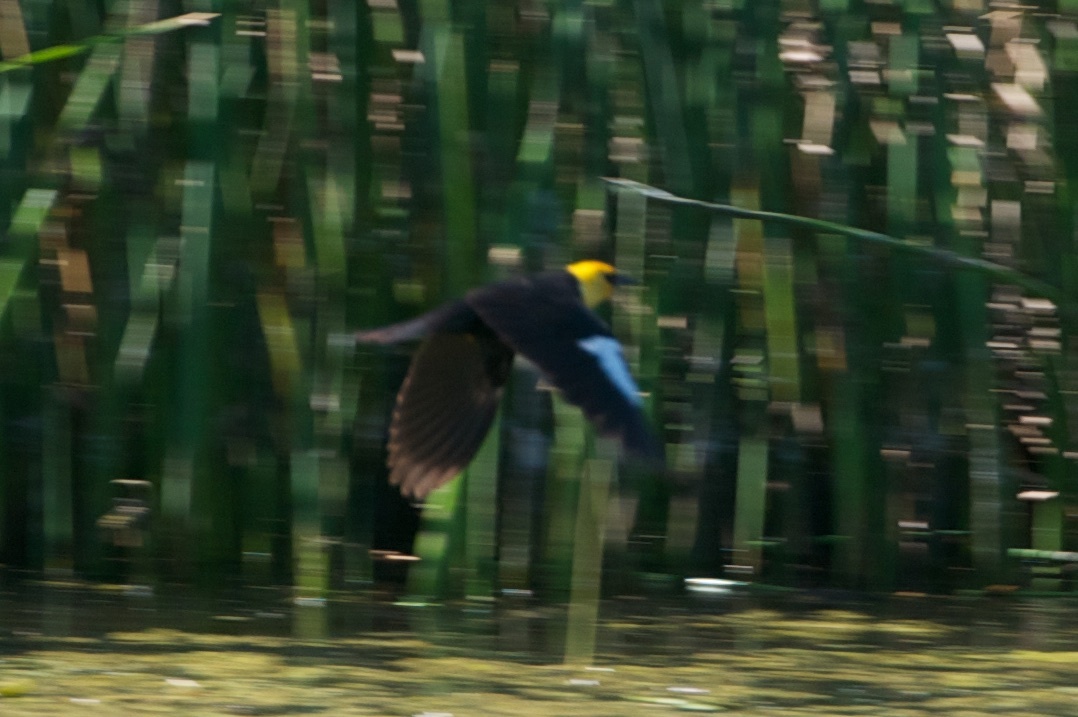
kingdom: Animalia
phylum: Chordata
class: Aves
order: Passeriformes
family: Icteridae
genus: Xanthocephalus
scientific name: Xanthocephalus xanthocephalus
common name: Yellow-headed blackbird
